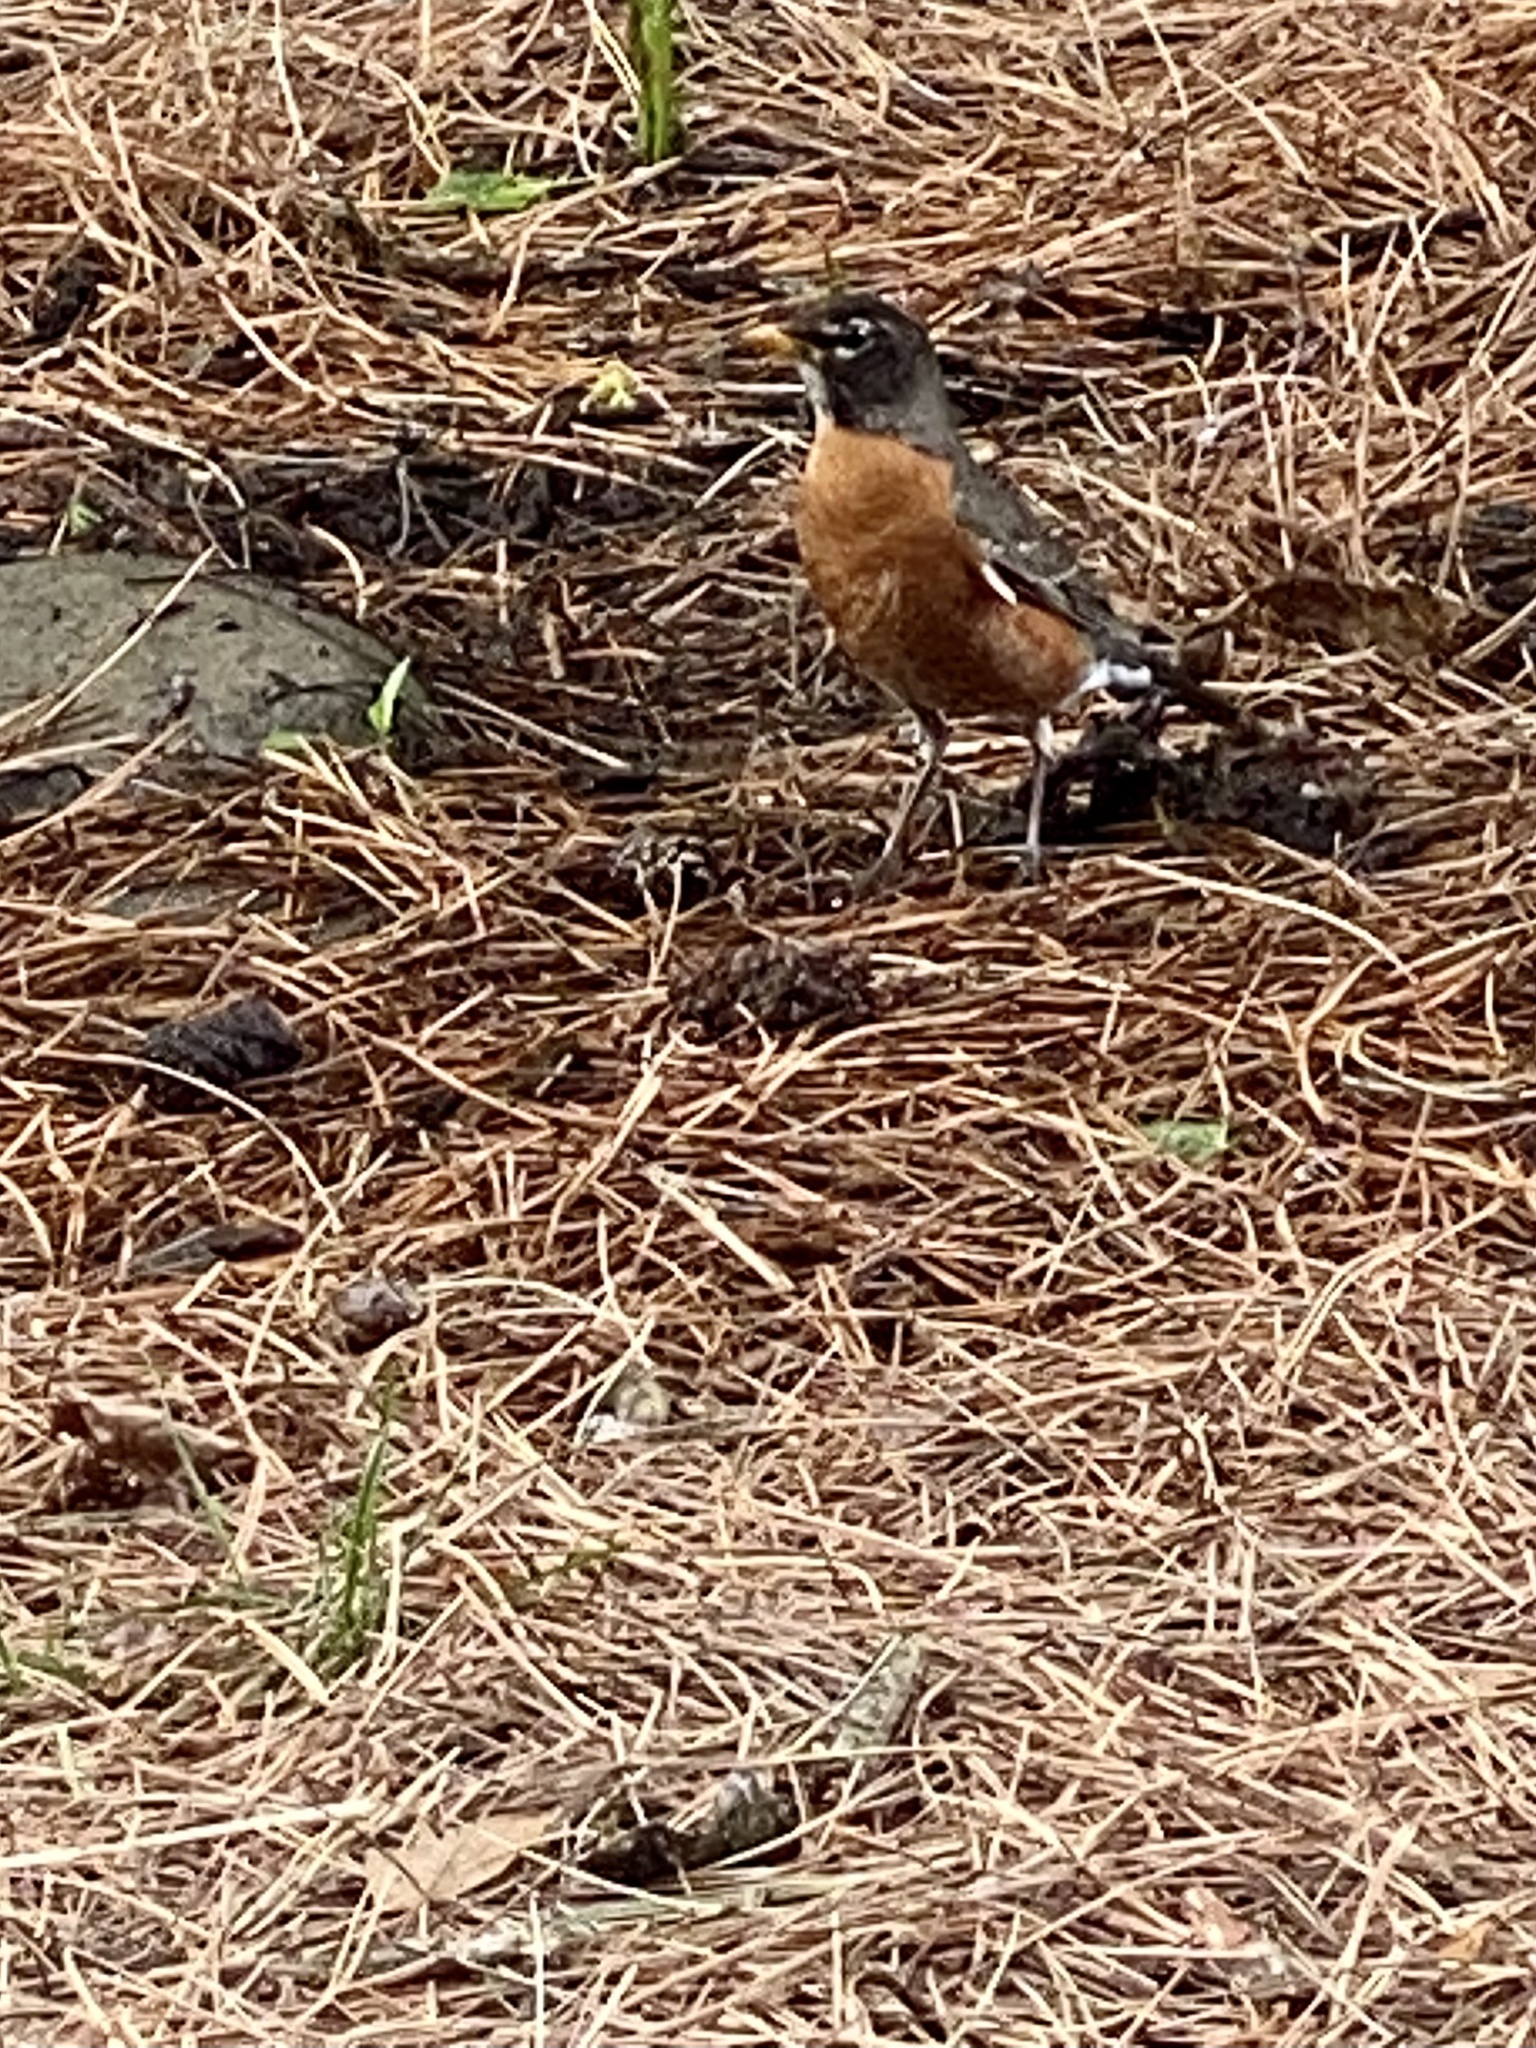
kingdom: Animalia
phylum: Chordata
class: Aves
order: Passeriformes
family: Turdidae
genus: Turdus
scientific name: Turdus migratorius
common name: American robin
